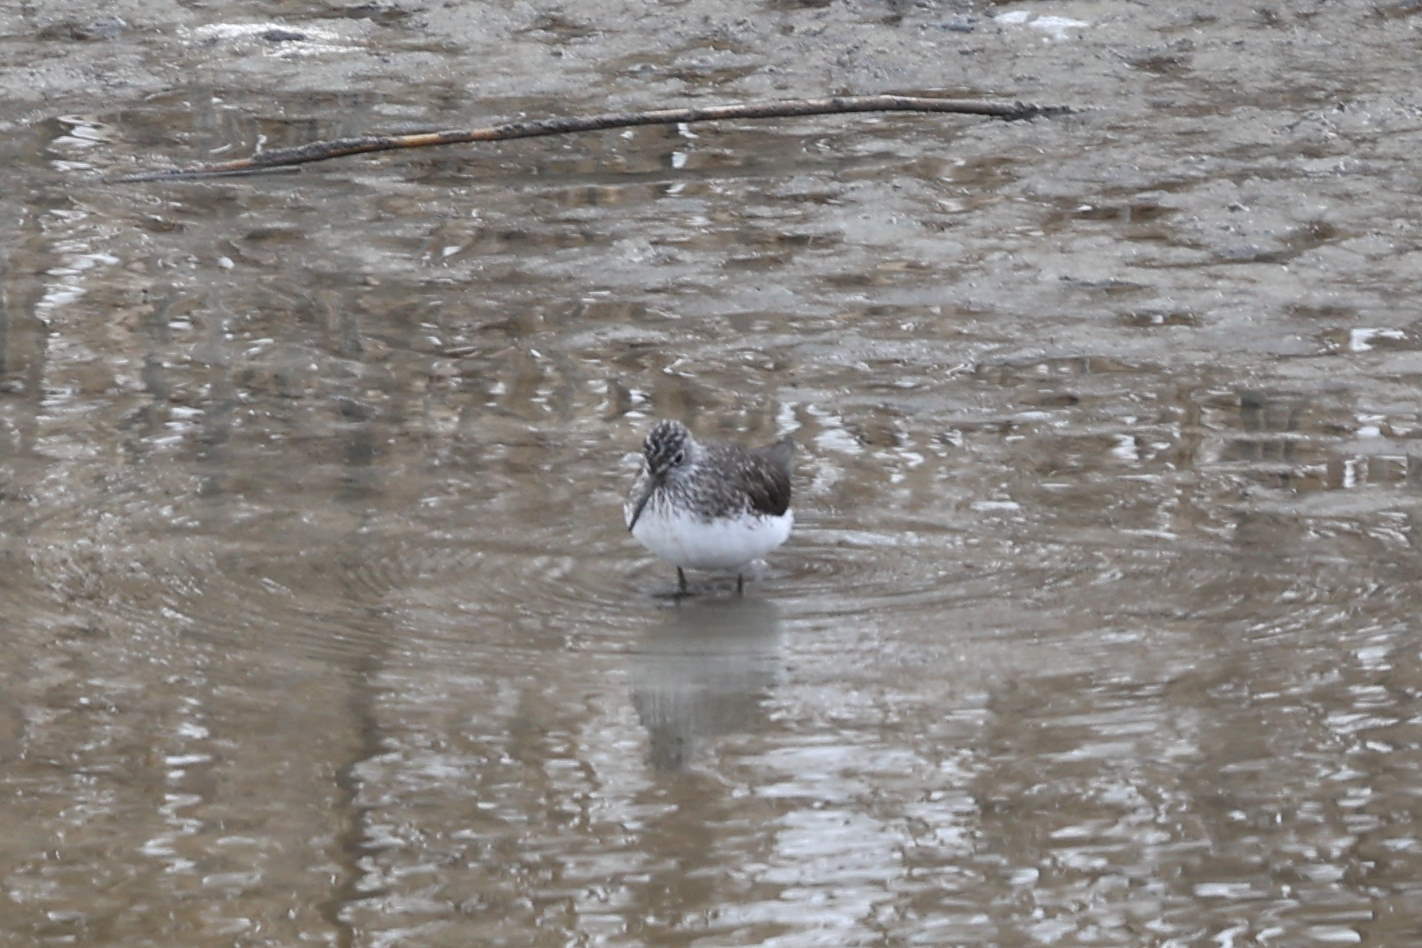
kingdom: Animalia
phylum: Chordata
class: Aves
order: Charadriiformes
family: Scolopacidae
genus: Tringa
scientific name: Tringa ochropus
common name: Green sandpiper
